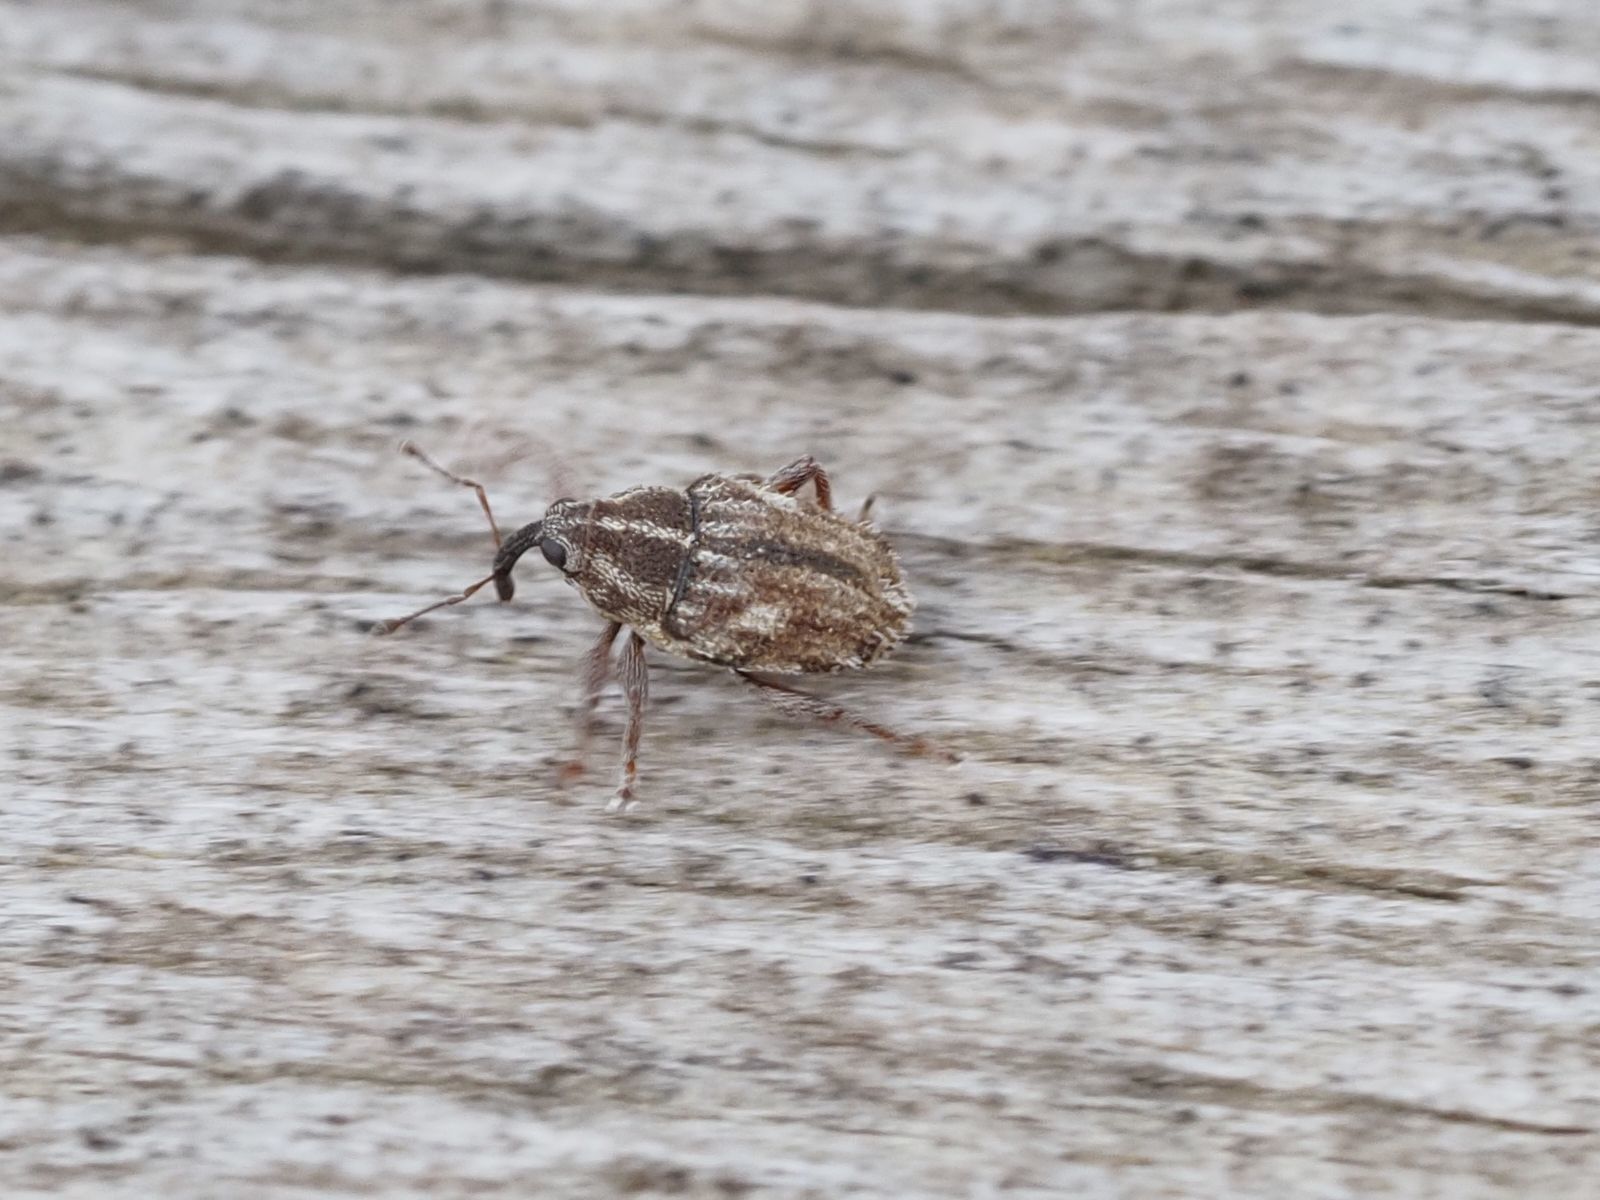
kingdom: Animalia
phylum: Arthropoda
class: Insecta
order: Coleoptera
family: Curculionidae
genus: Trichosirocalus
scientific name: Trichosirocalus troglodytes
